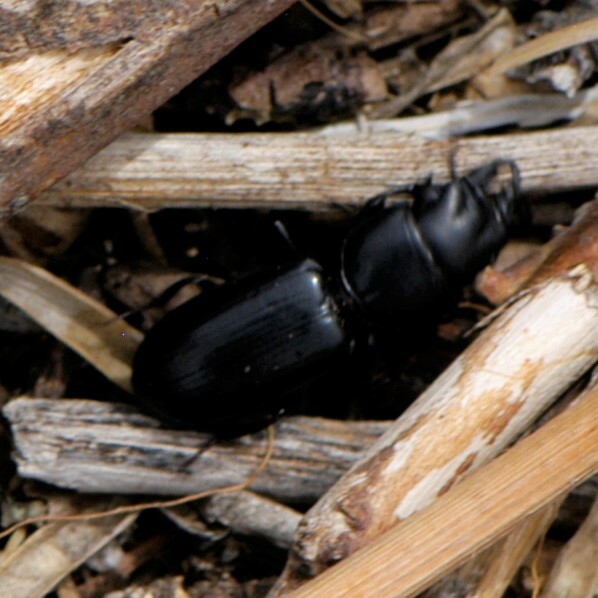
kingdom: Animalia
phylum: Arthropoda
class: Insecta
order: Coleoptera
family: Carabidae
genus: Scarites
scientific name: Scarites
